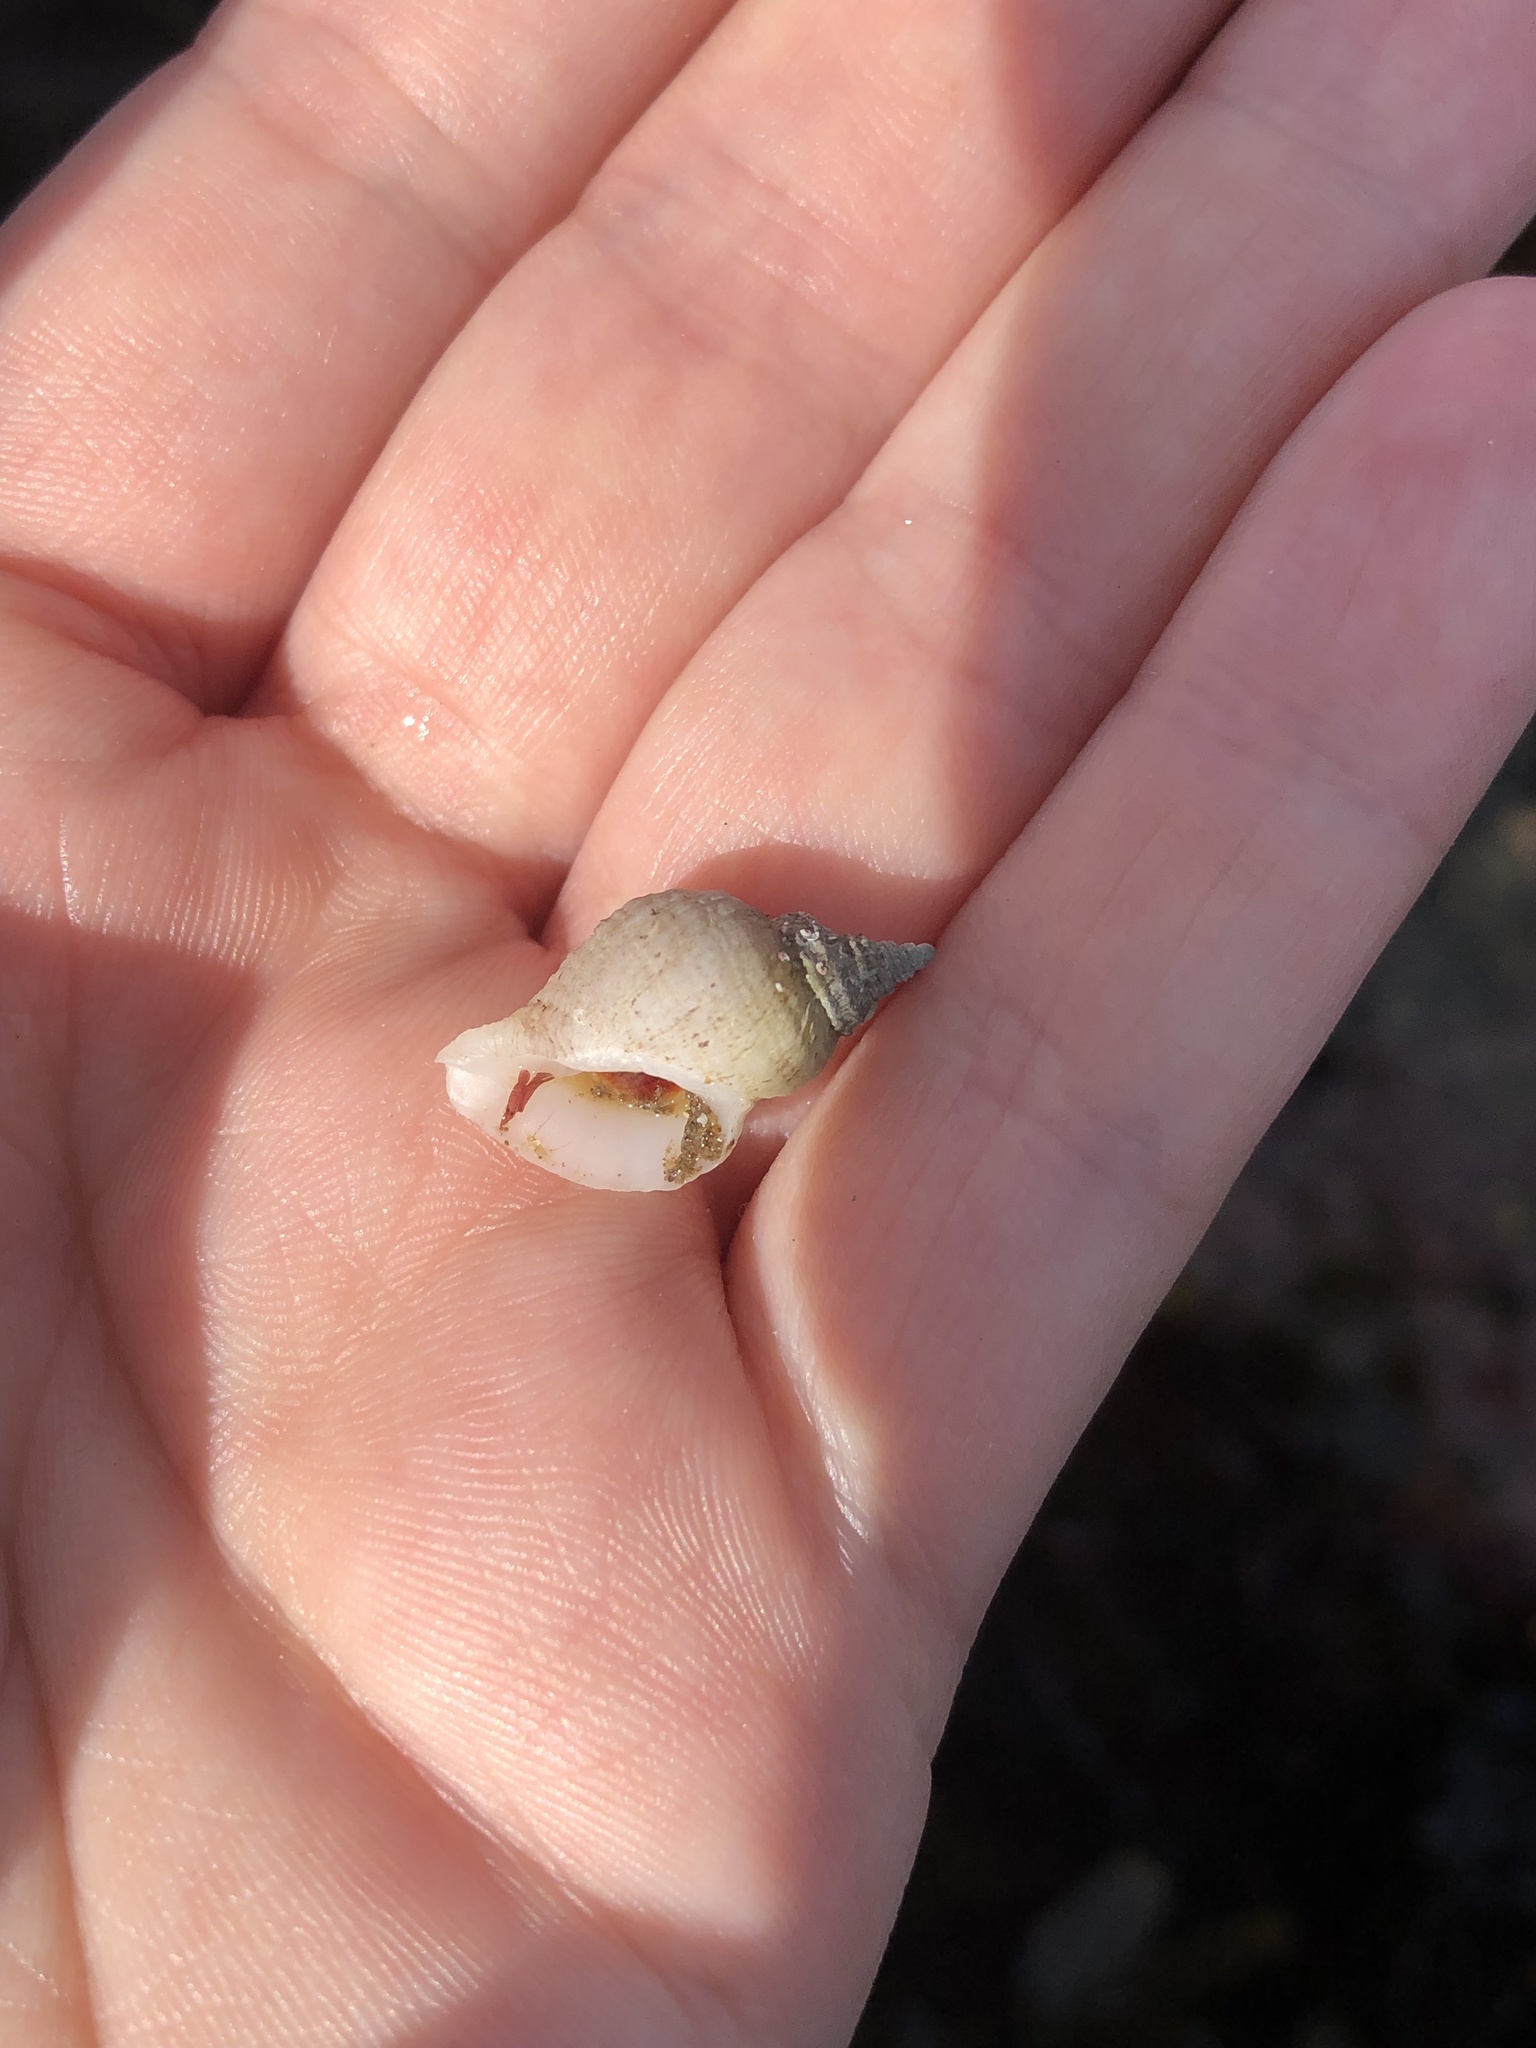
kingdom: Animalia
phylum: Mollusca
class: Gastropoda
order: Neogastropoda
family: Muricidae
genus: Nucella
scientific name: Nucella lapillus
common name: Dog whelk
